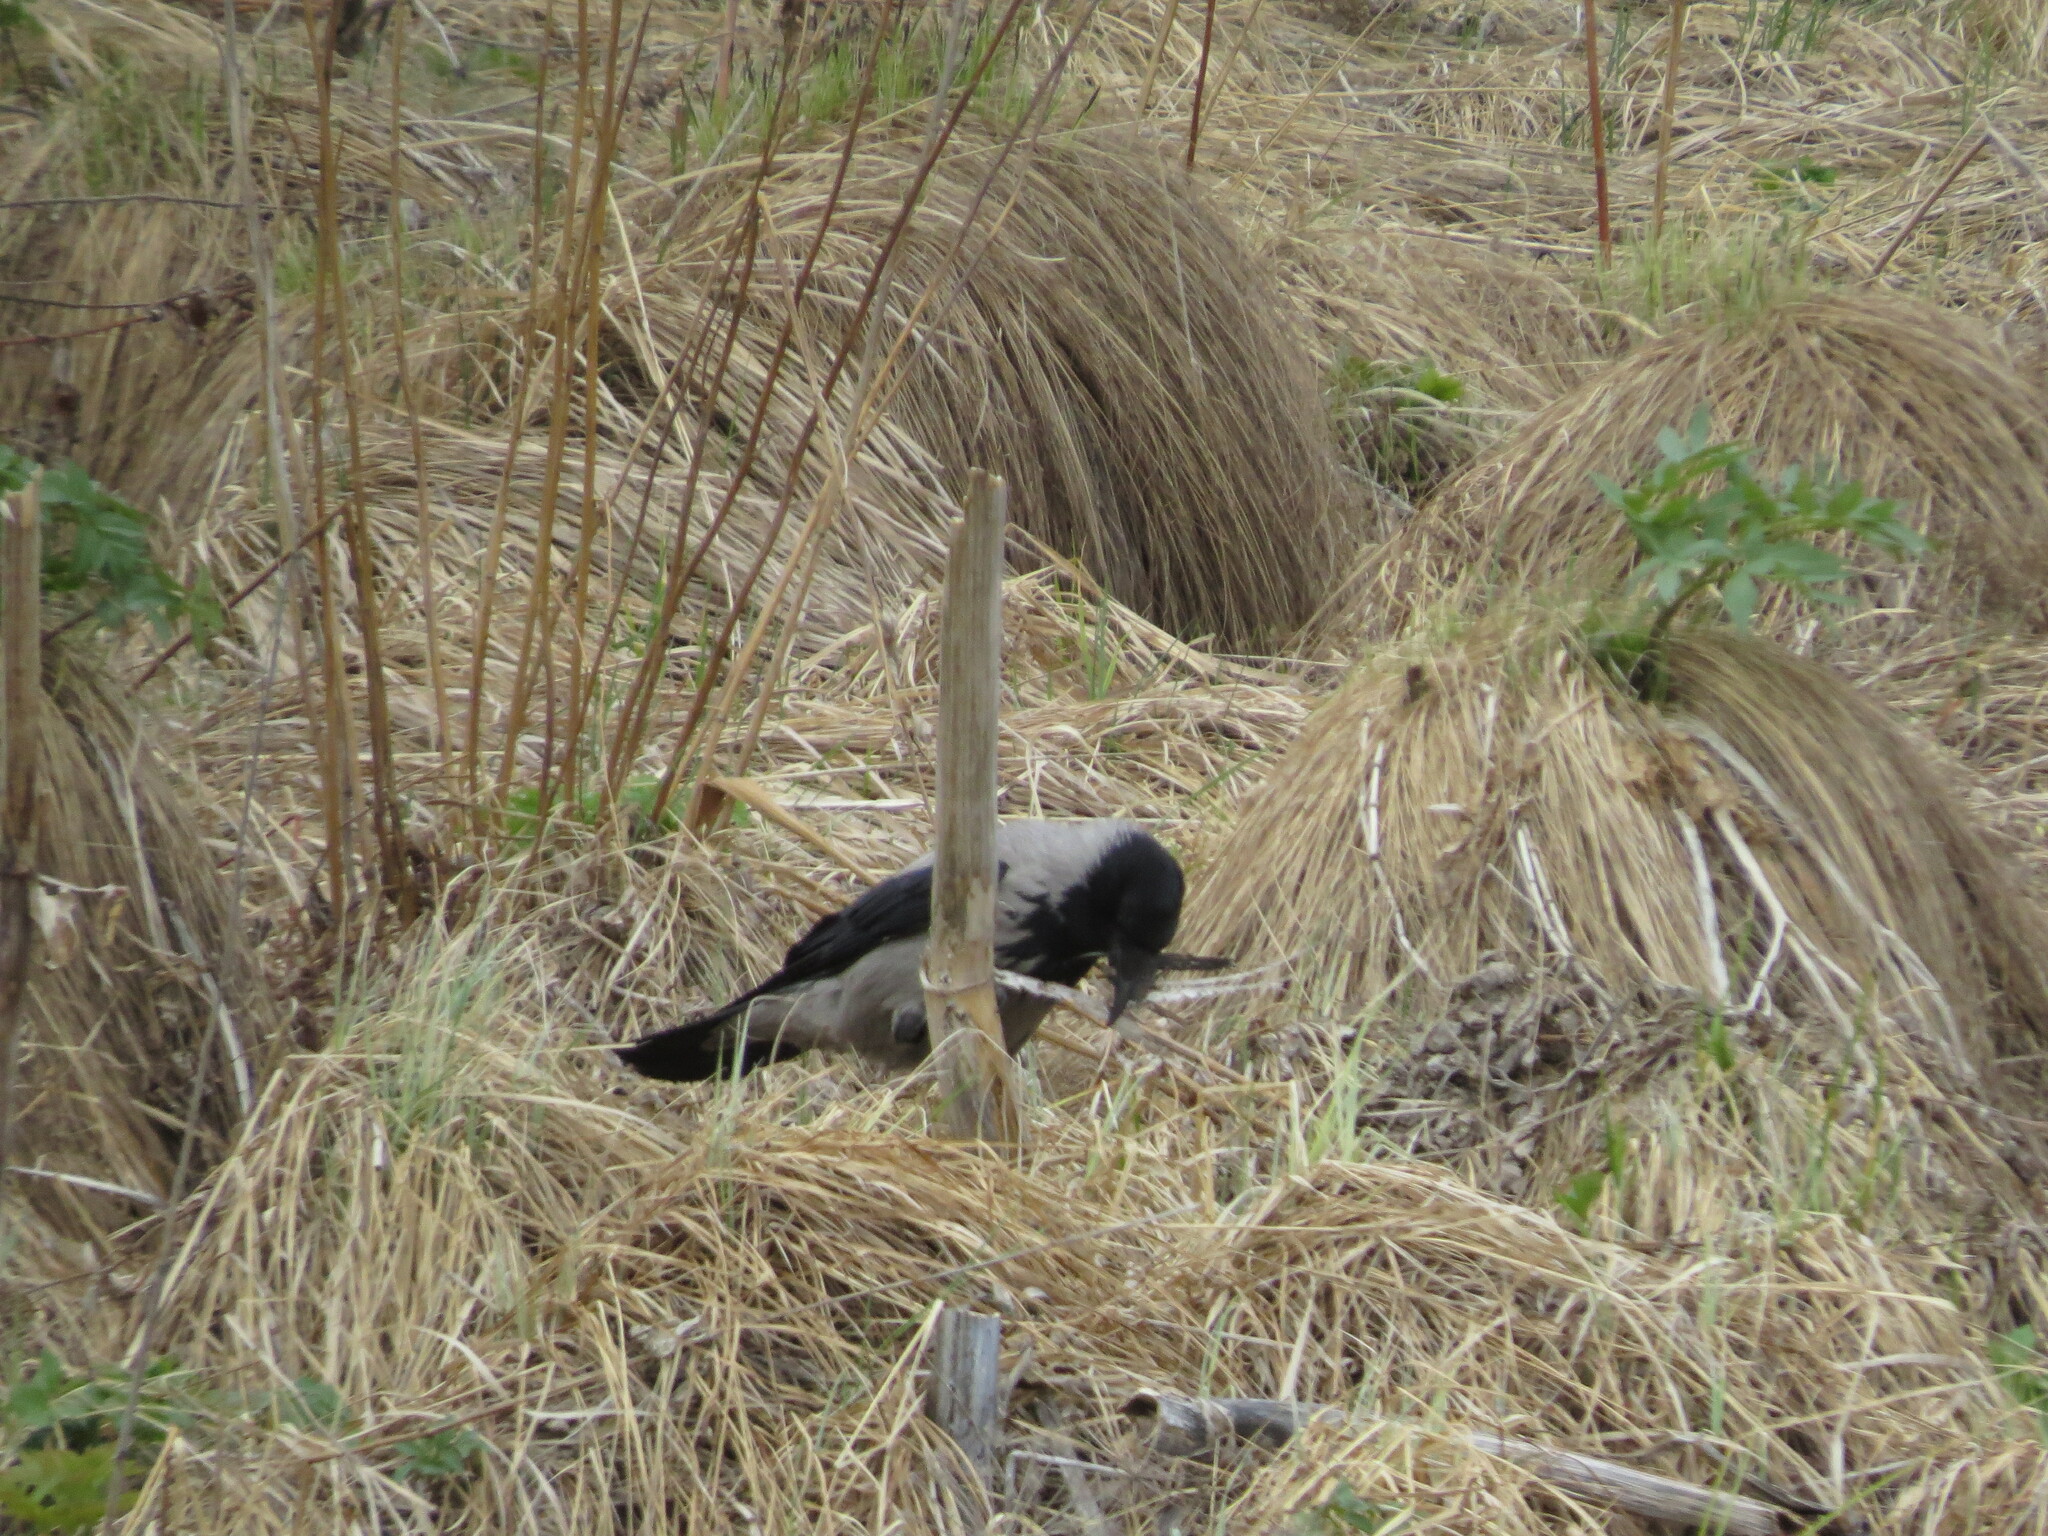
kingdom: Animalia
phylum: Chordata
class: Aves
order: Passeriformes
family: Corvidae
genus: Corvus
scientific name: Corvus cornix
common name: Hooded crow
